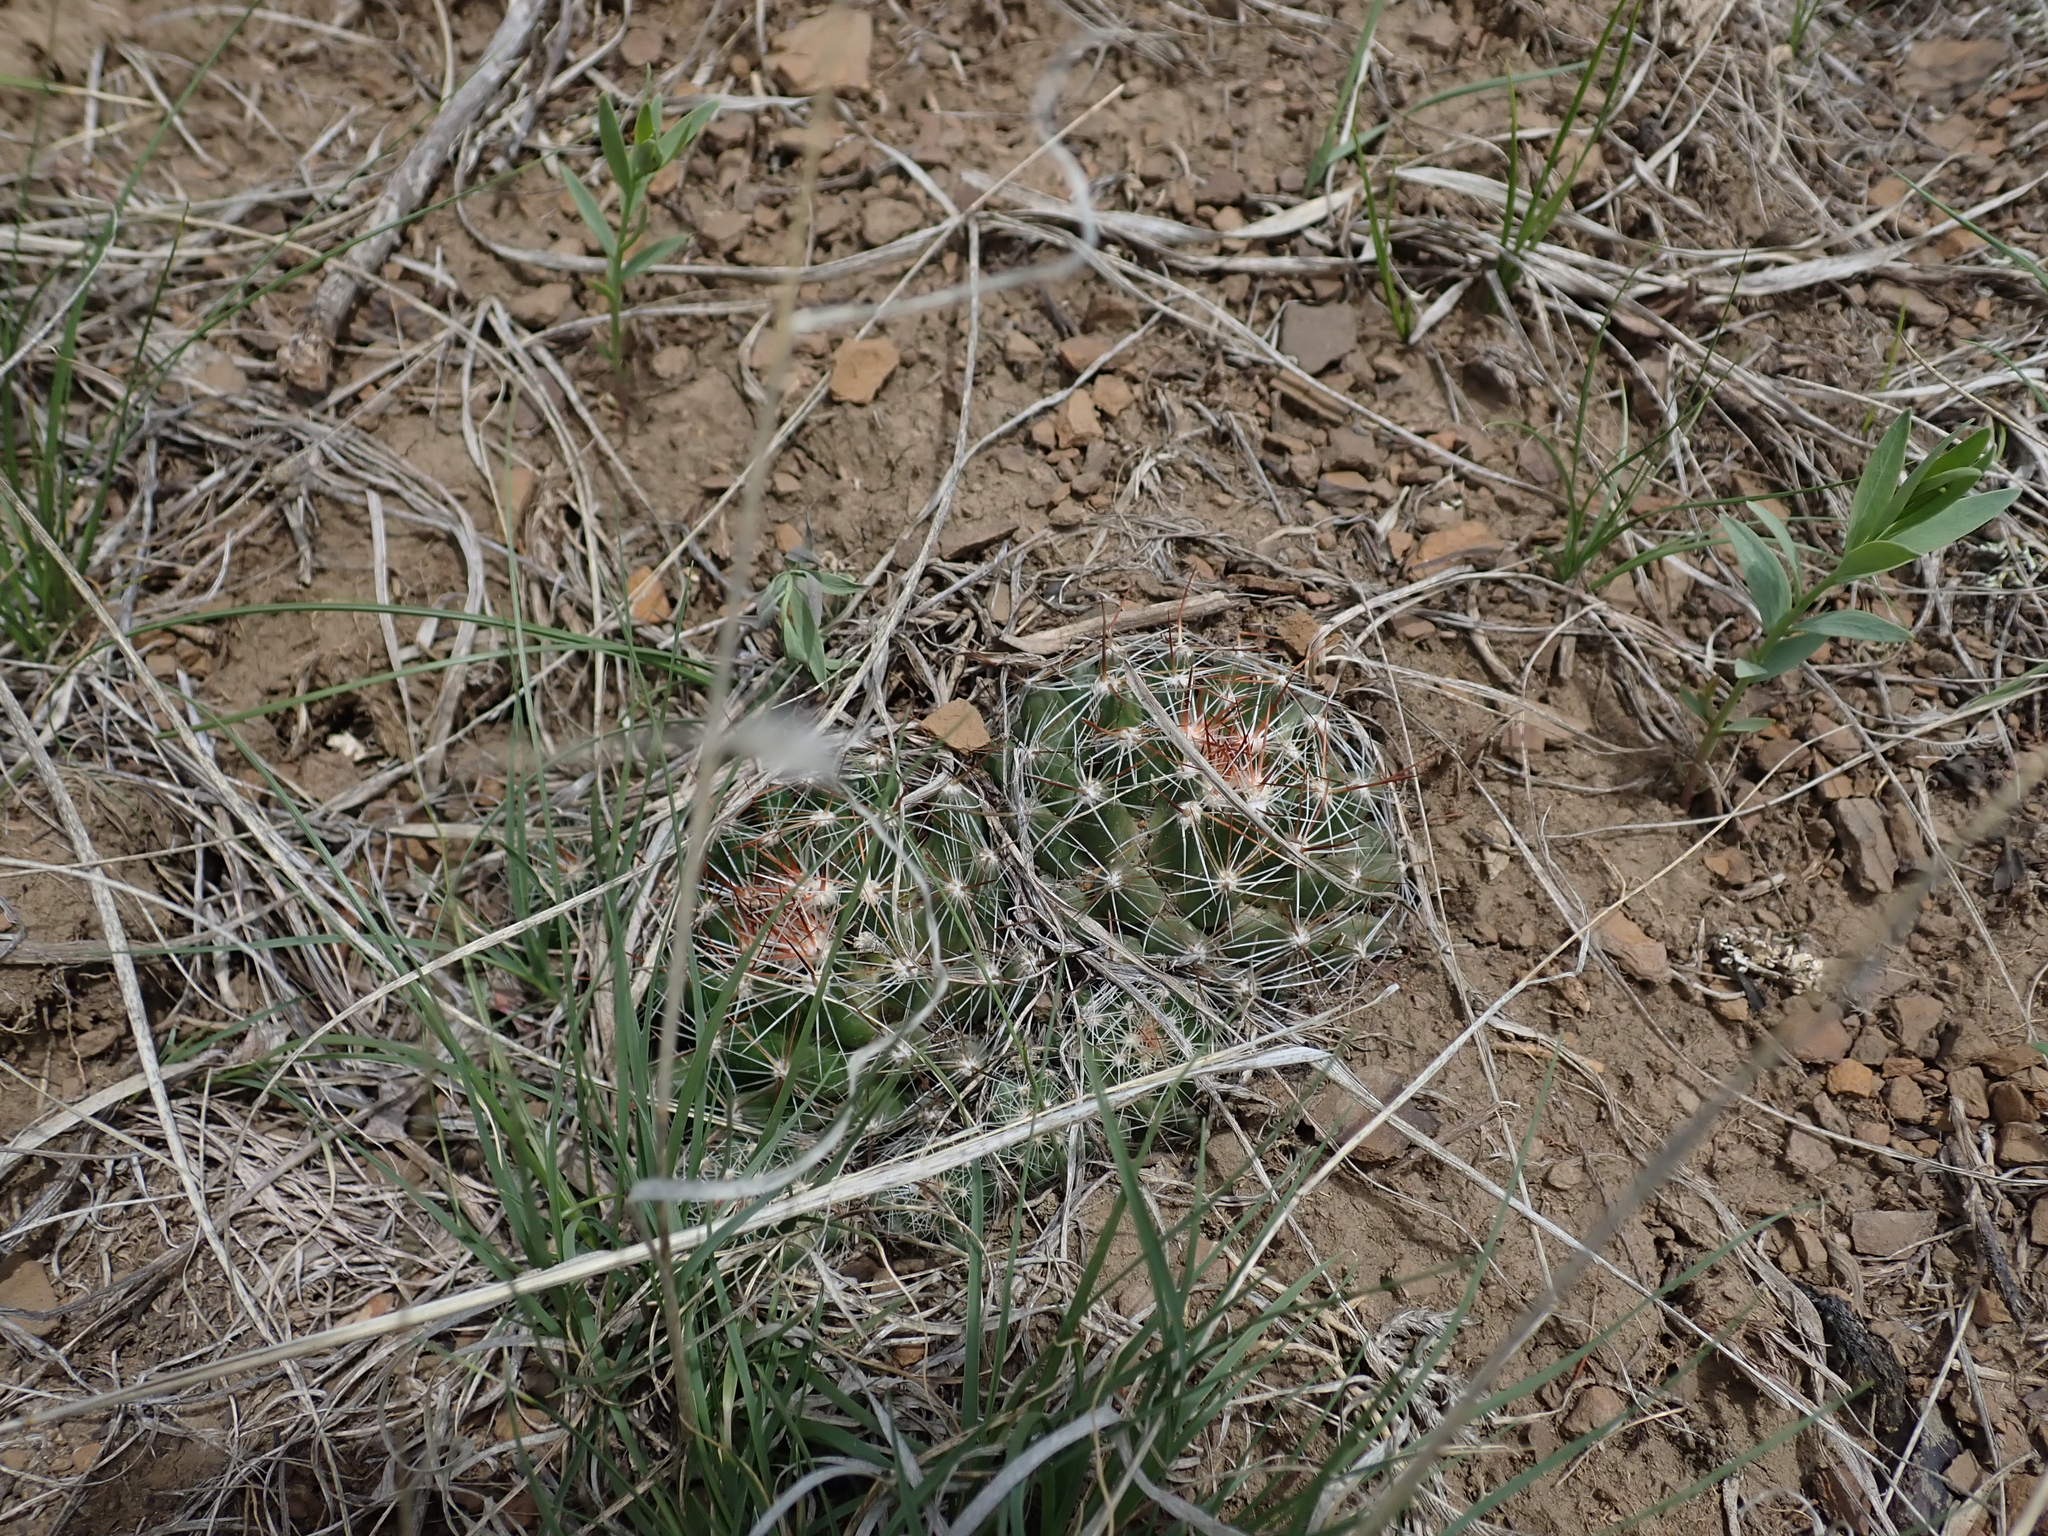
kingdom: Plantae
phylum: Tracheophyta
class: Magnoliopsida
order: Caryophyllales
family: Cactaceae
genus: Pelecyphora
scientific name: Pelecyphora vivipara
